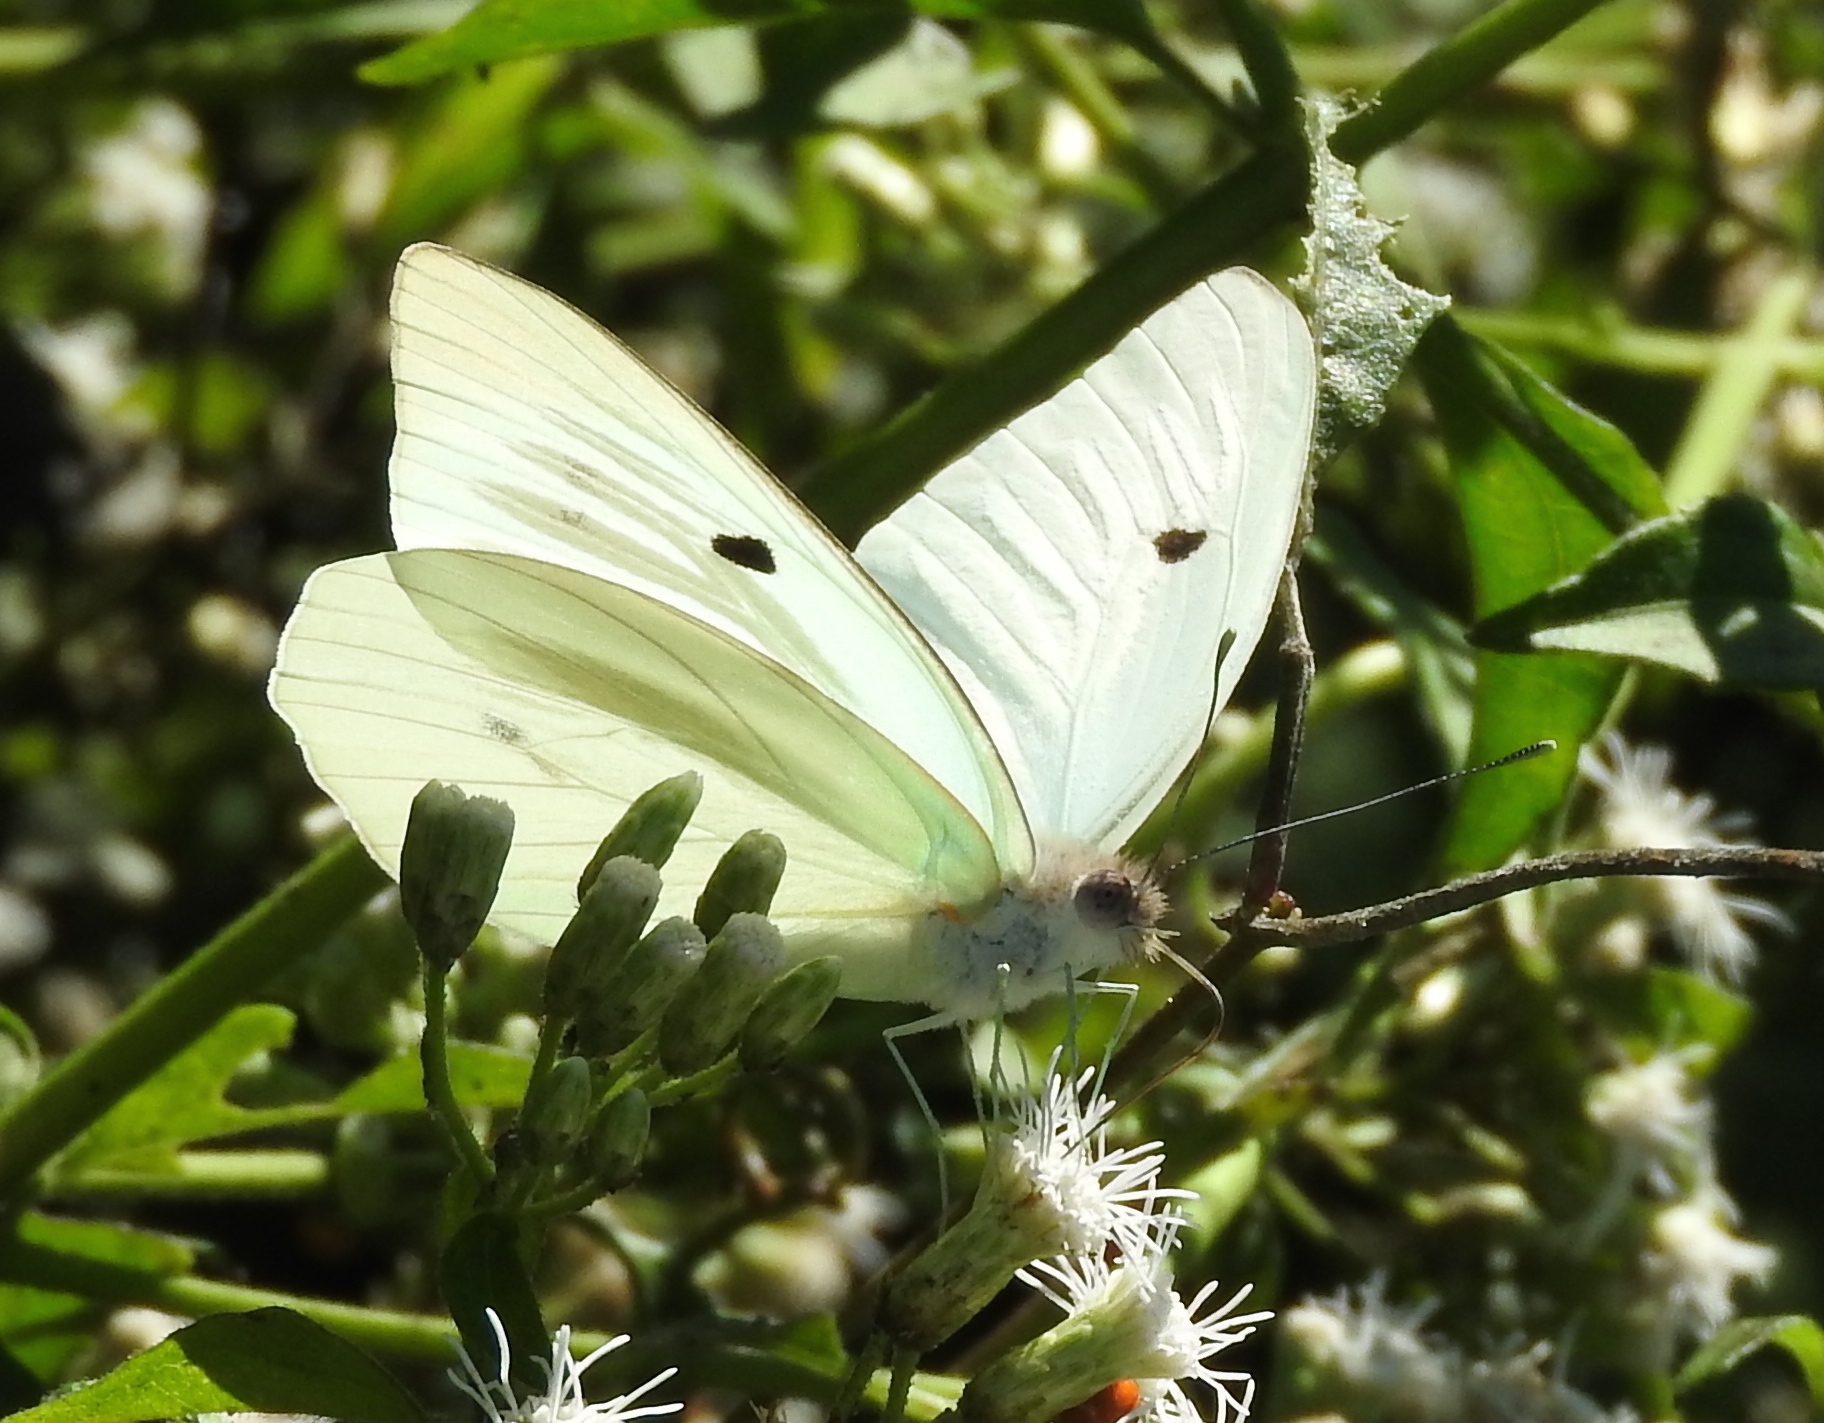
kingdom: Animalia
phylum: Arthropoda
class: Insecta
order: Lepidoptera
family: Pieridae
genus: Ganyra
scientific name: Ganyra josephina
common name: Giant white
